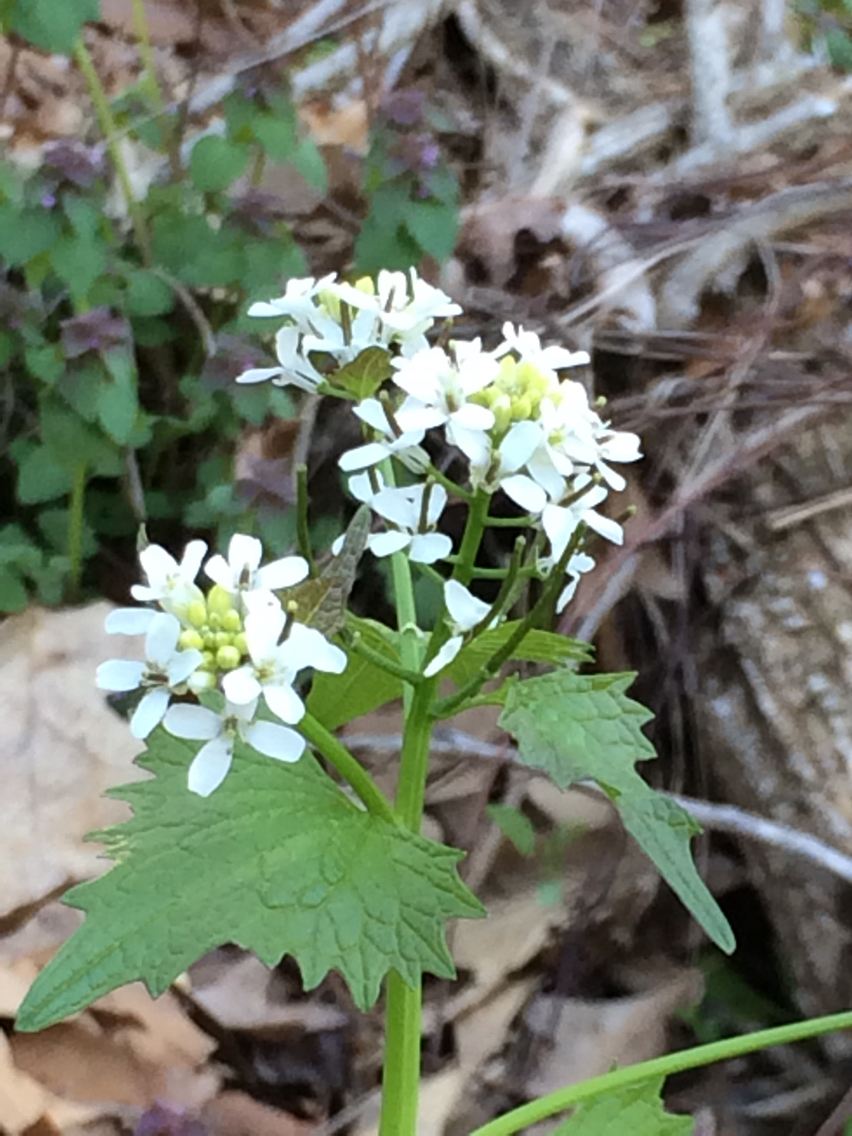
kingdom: Plantae
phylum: Tracheophyta
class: Magnoliopsida
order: Brassicales
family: Brassicaceae
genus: Alliaria
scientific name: Alliaria petiolata
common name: Garlic mustard
